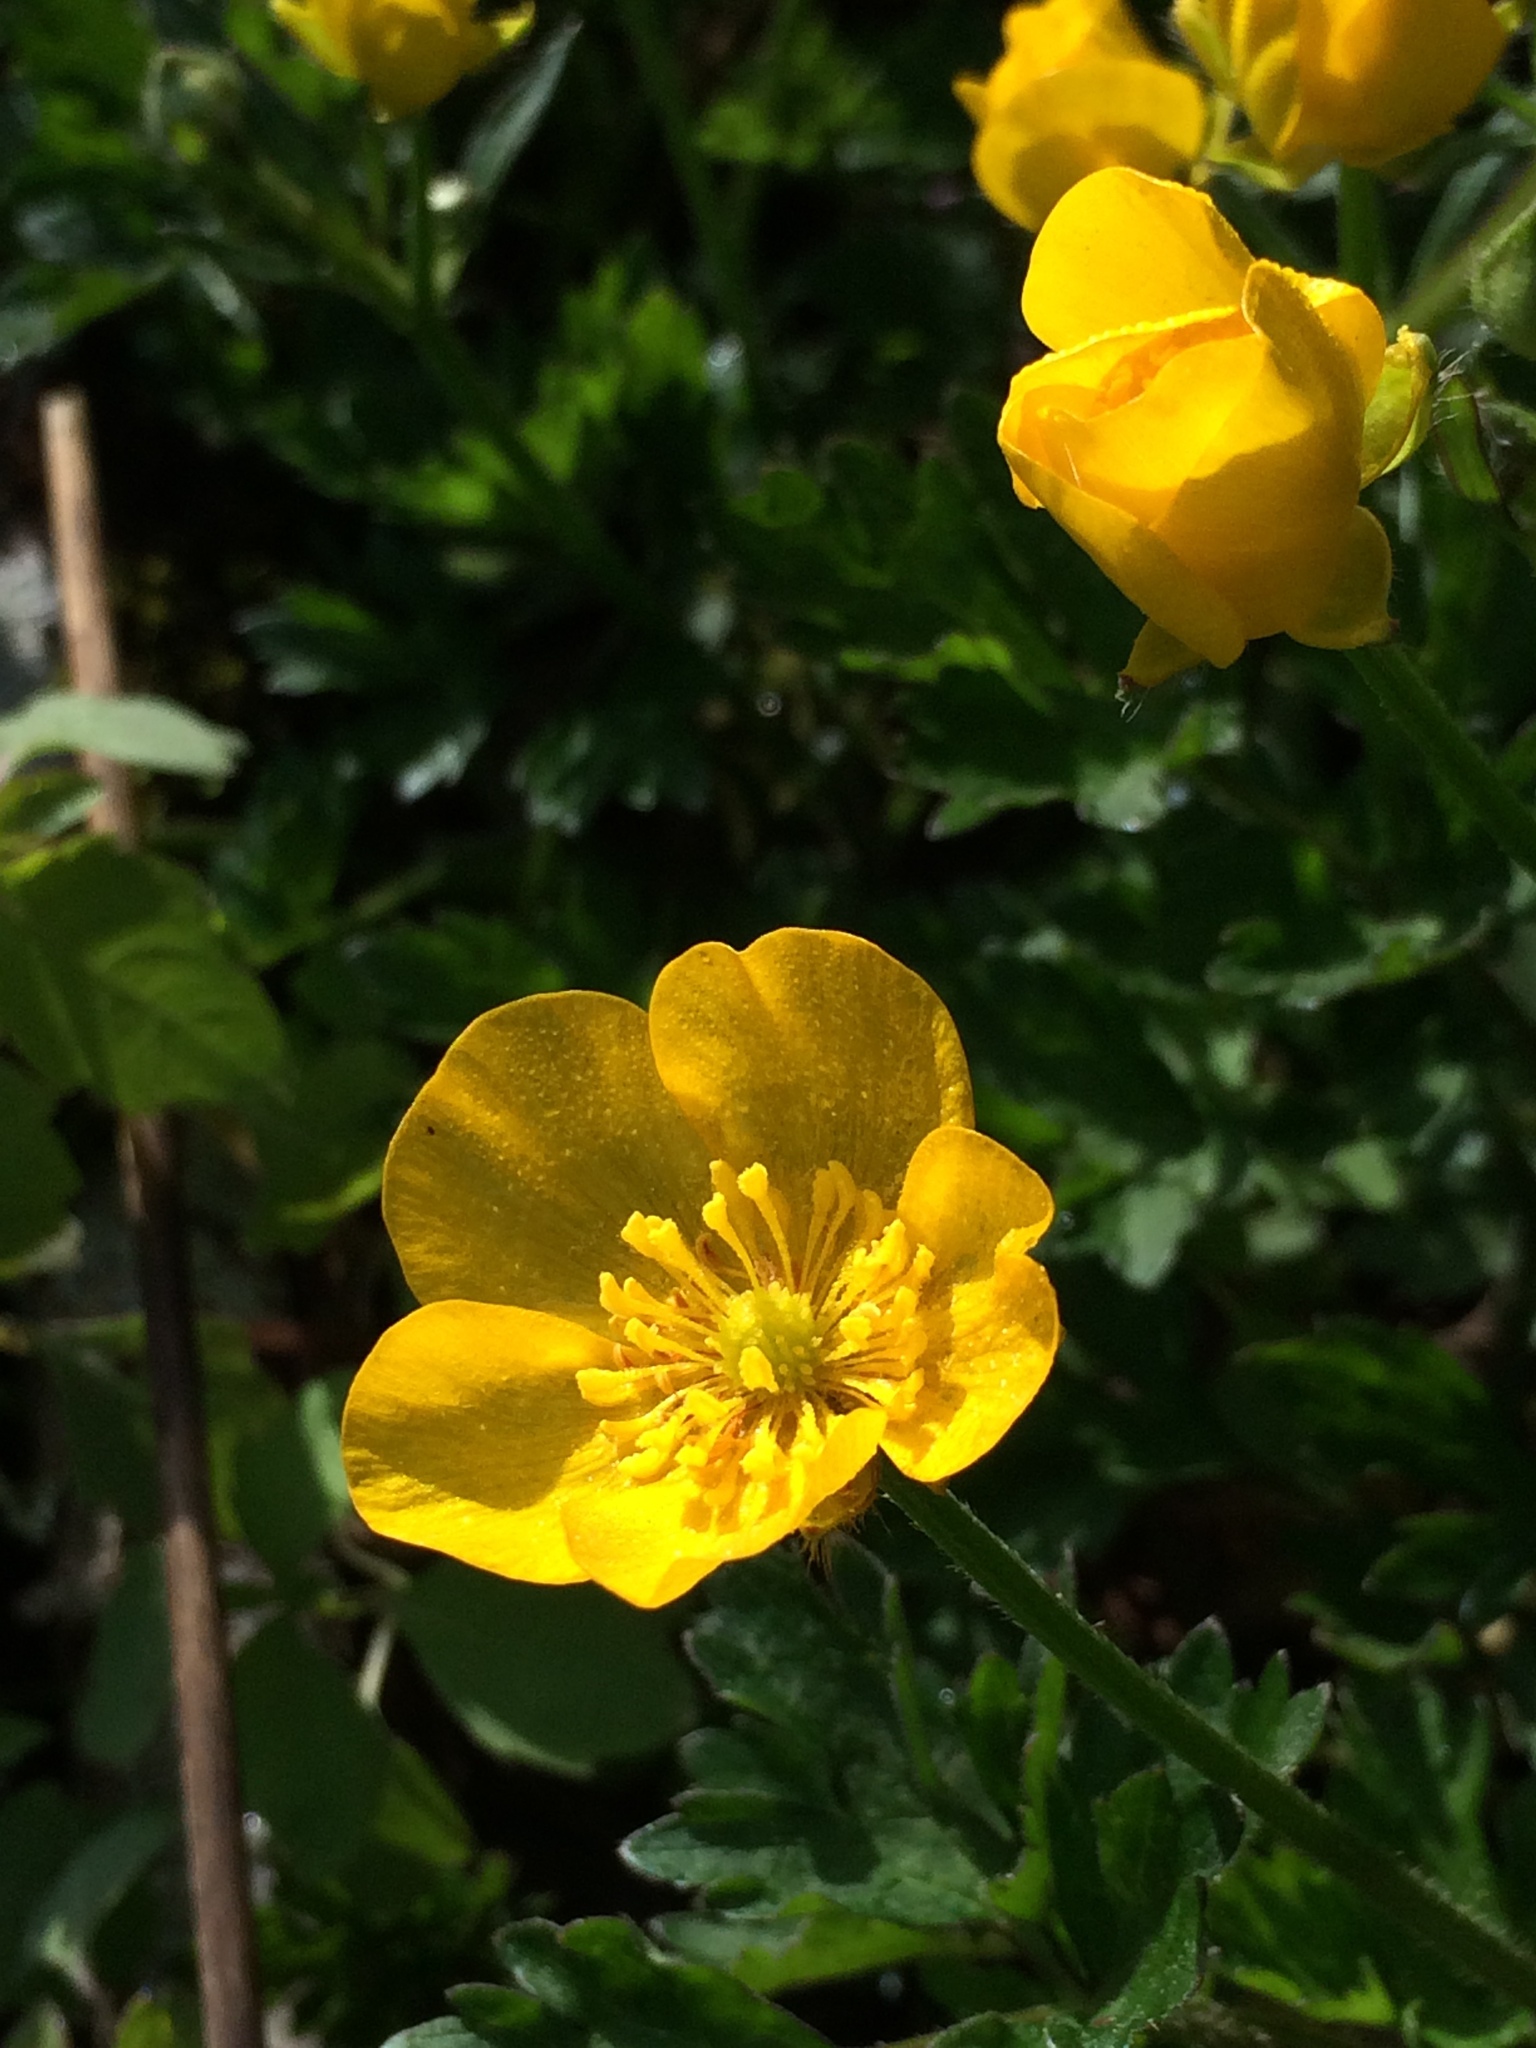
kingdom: Plantae
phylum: Tracheophyta
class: Magnoliopsida
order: Ranunculales
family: Ranunculaceae
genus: Ranunculus
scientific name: Ranunculus repens
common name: Creeping buttercup
